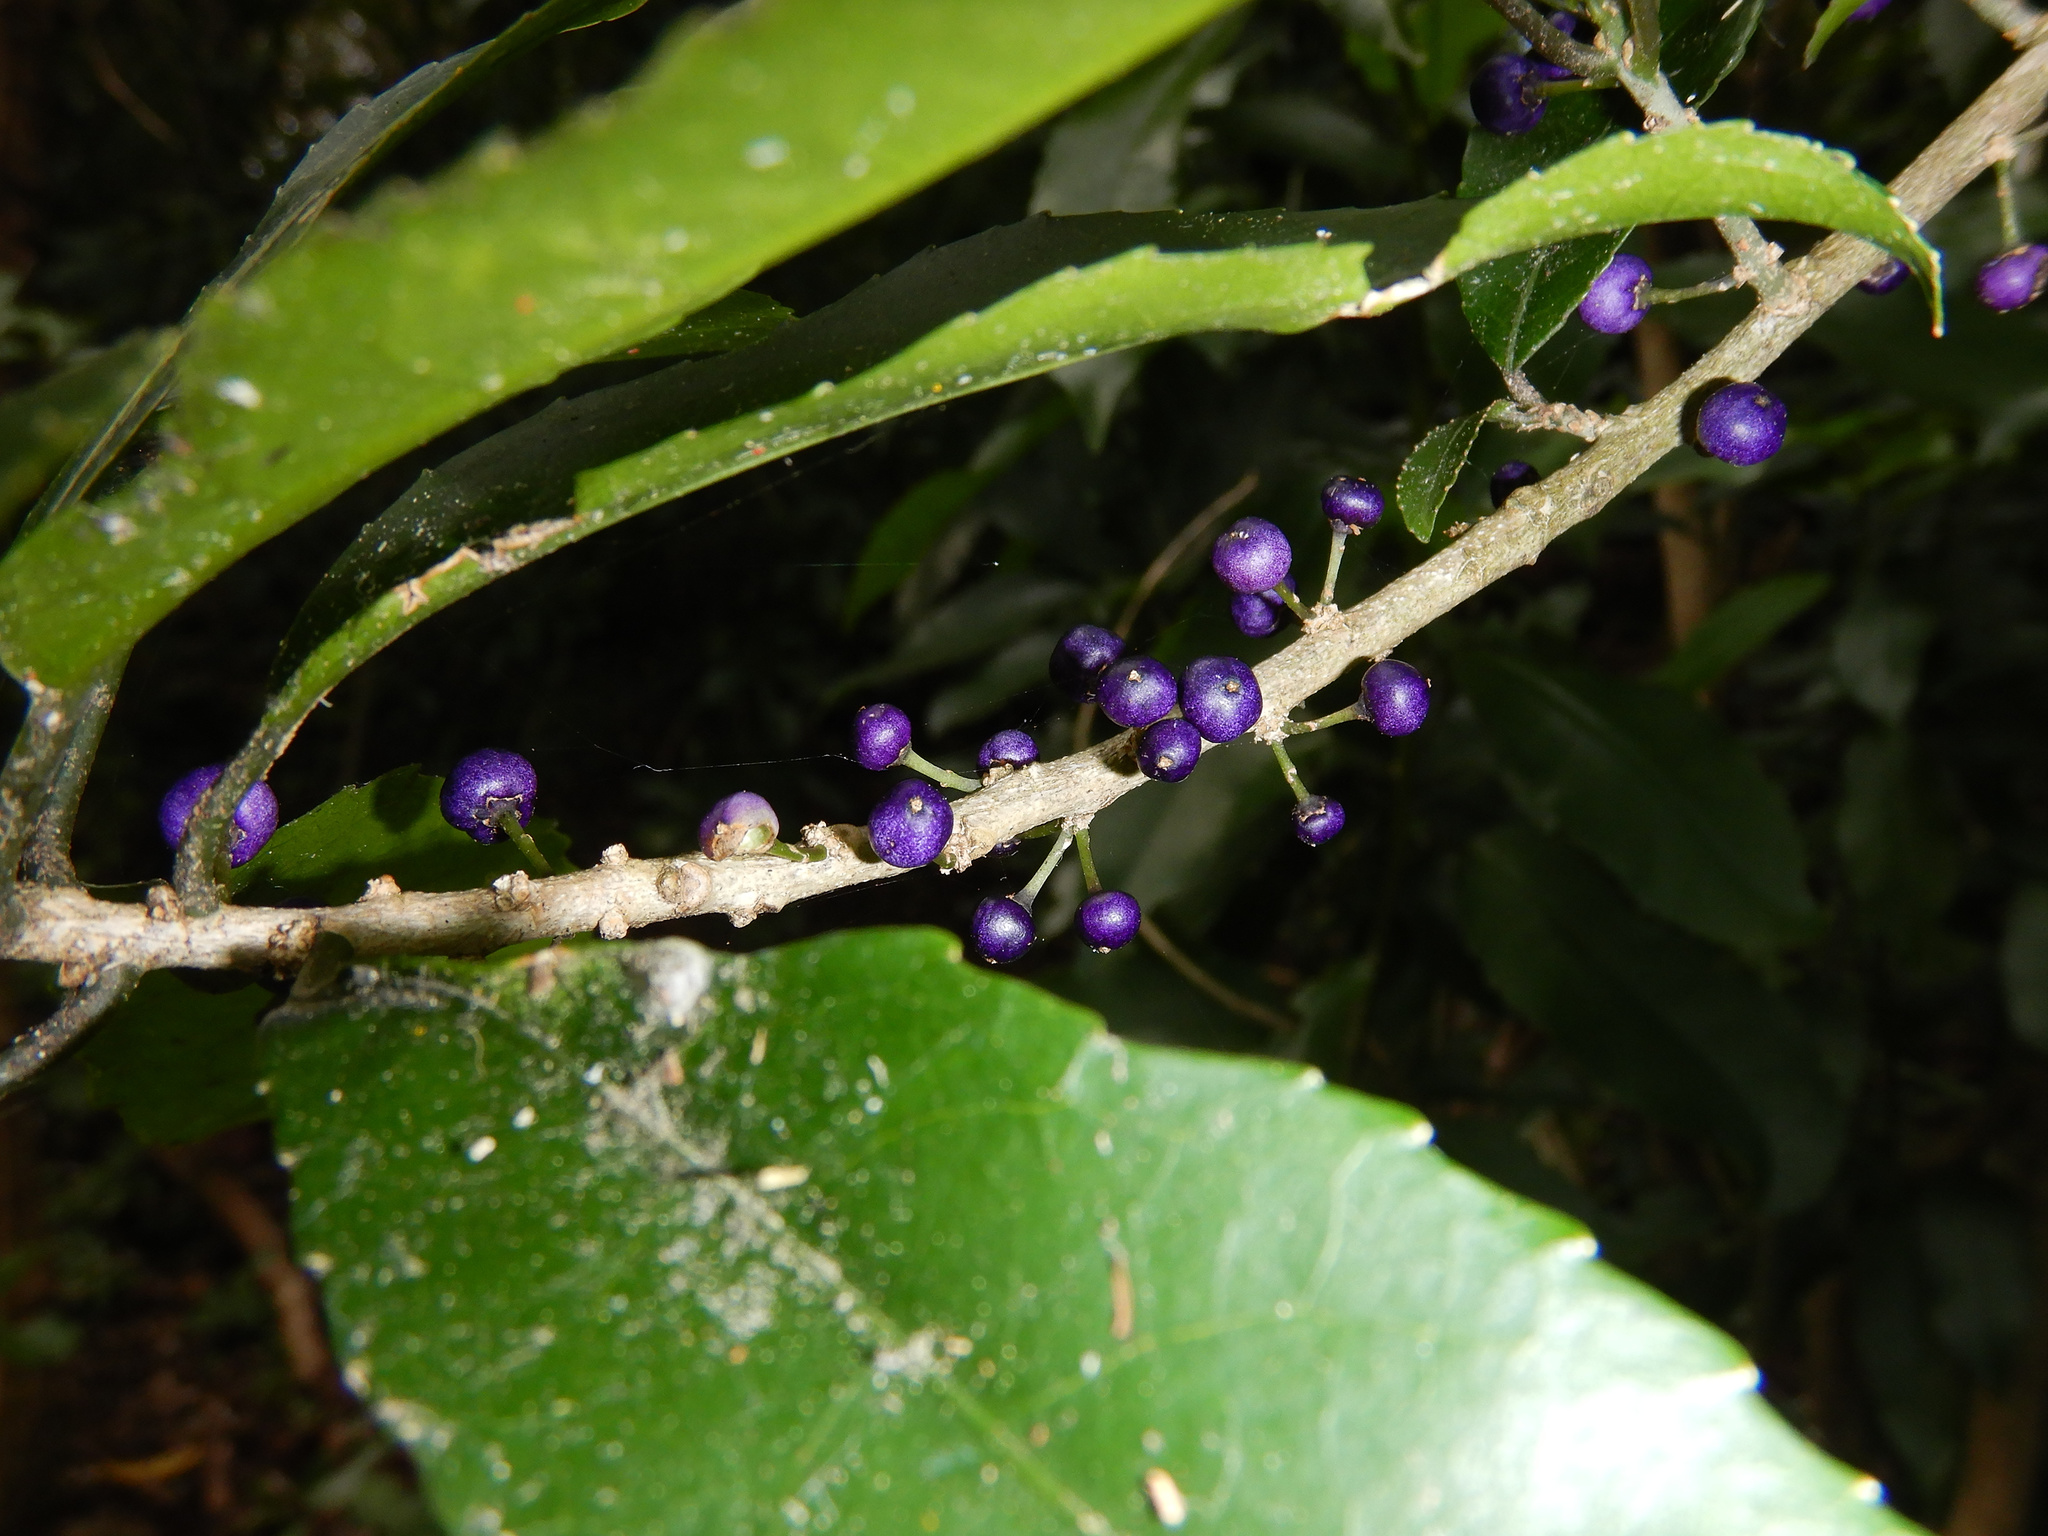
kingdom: Plantae
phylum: Tracheophyta
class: Magnoliopsida
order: Malpighiales
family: Violaceae
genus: Melicytus
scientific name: Melicytus ramiflorus
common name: Mahoe
